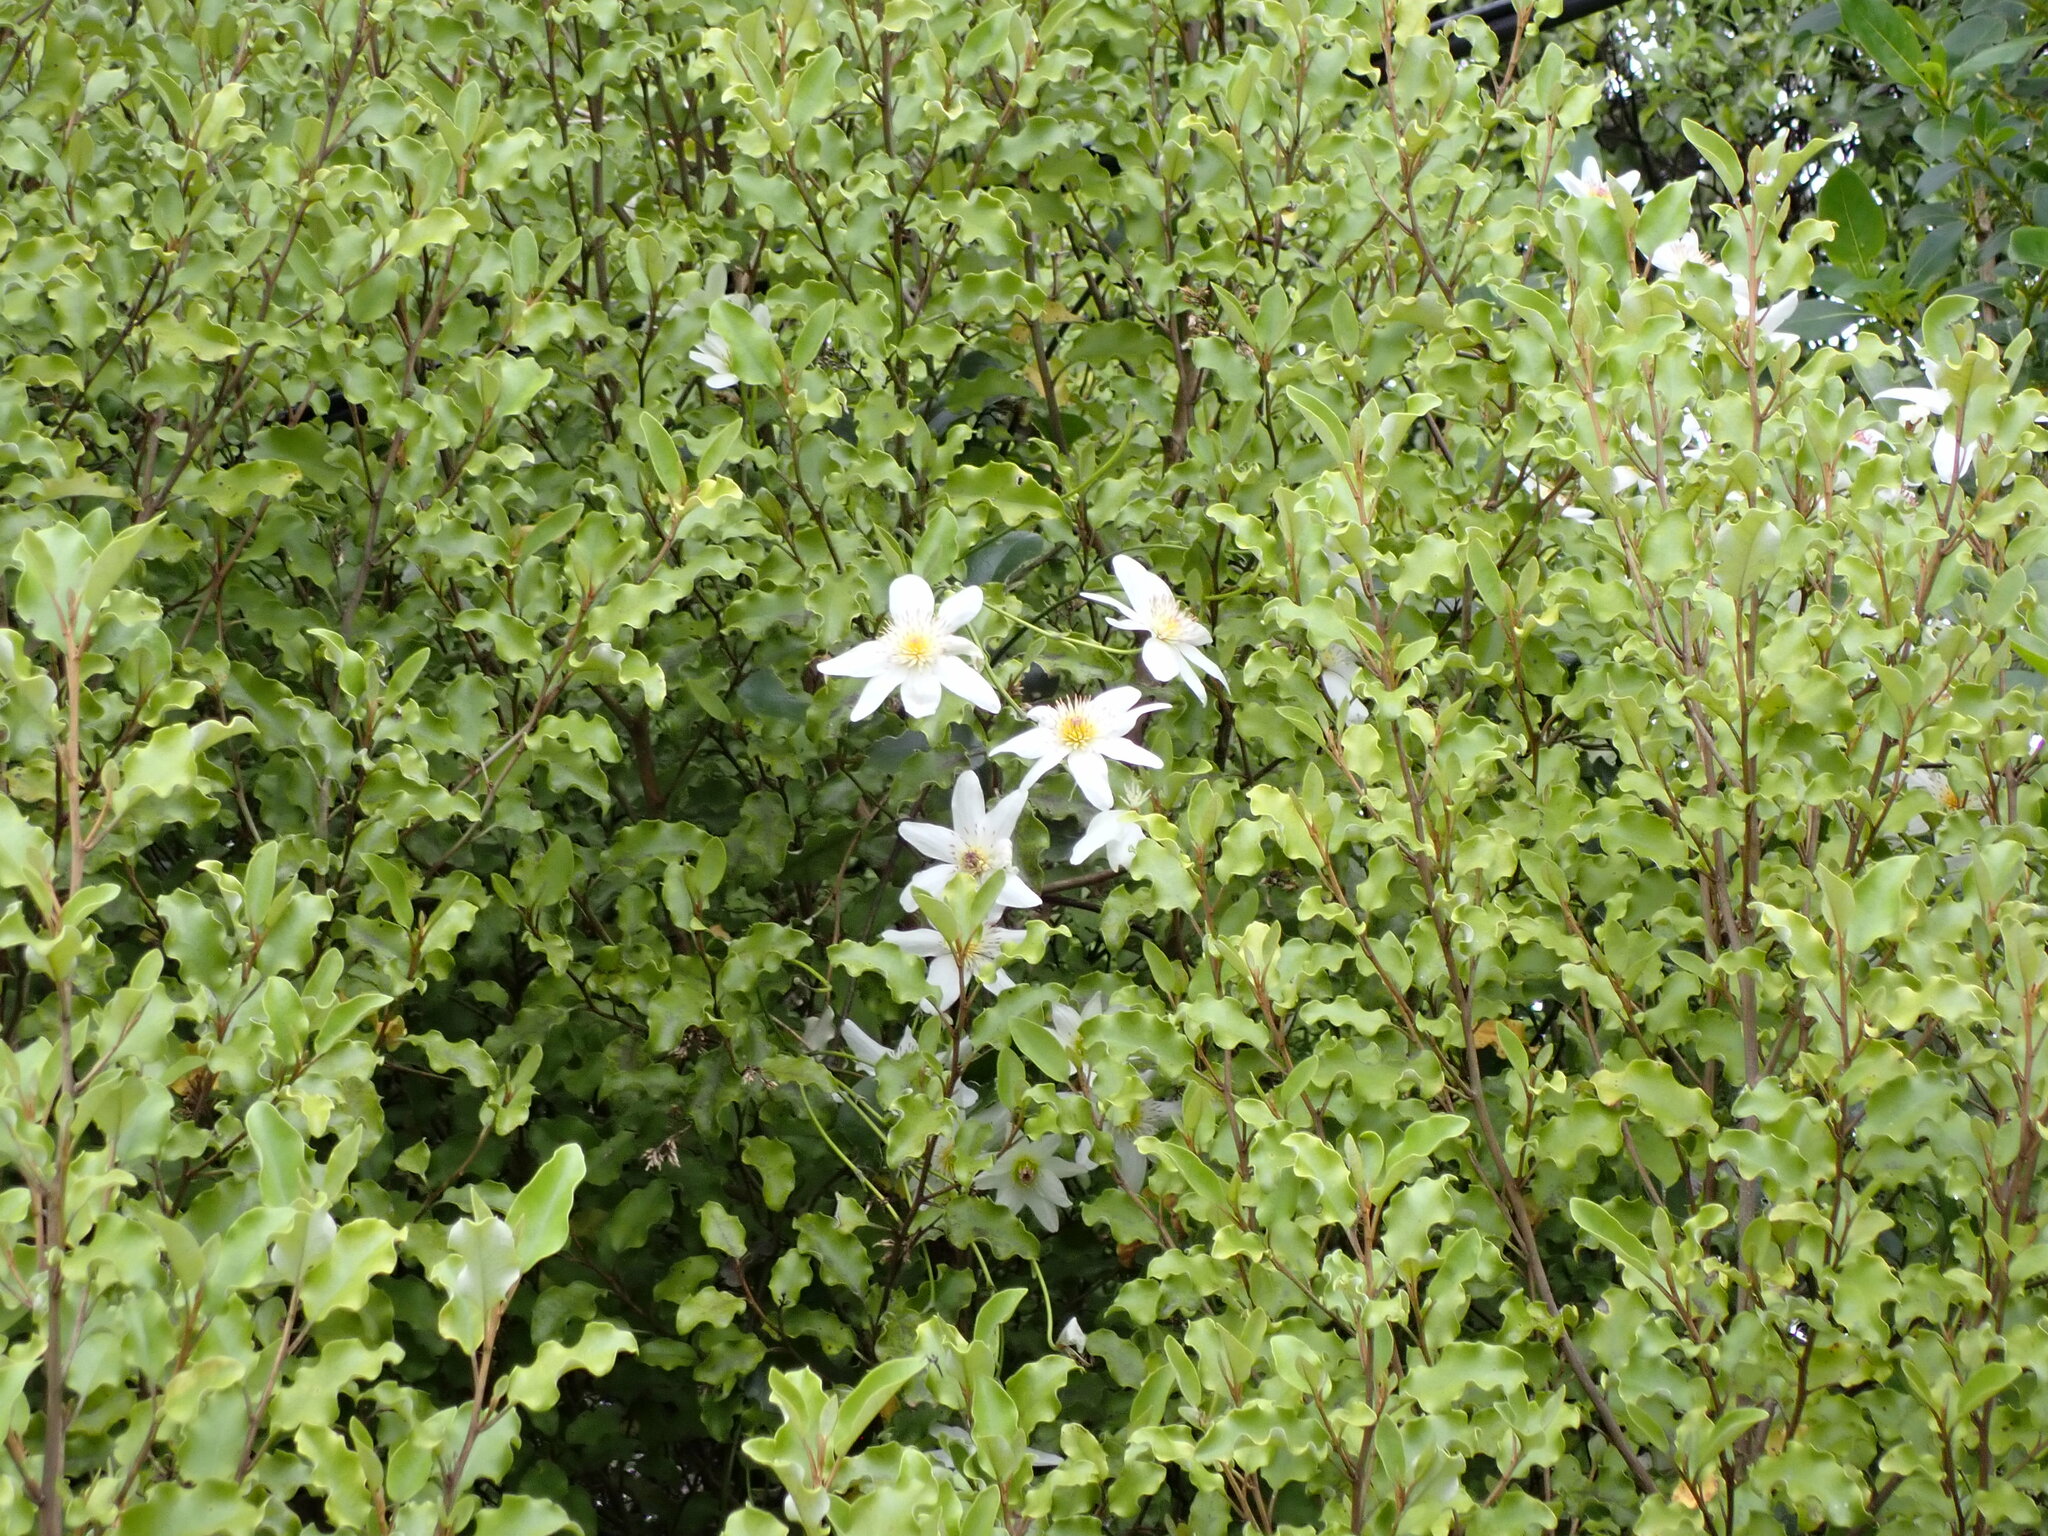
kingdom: Plantae
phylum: Tracheophyta
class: Magnoliopsida
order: Ranunculales
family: Ranunculaceae
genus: Clematis
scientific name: Clematis paniculata
